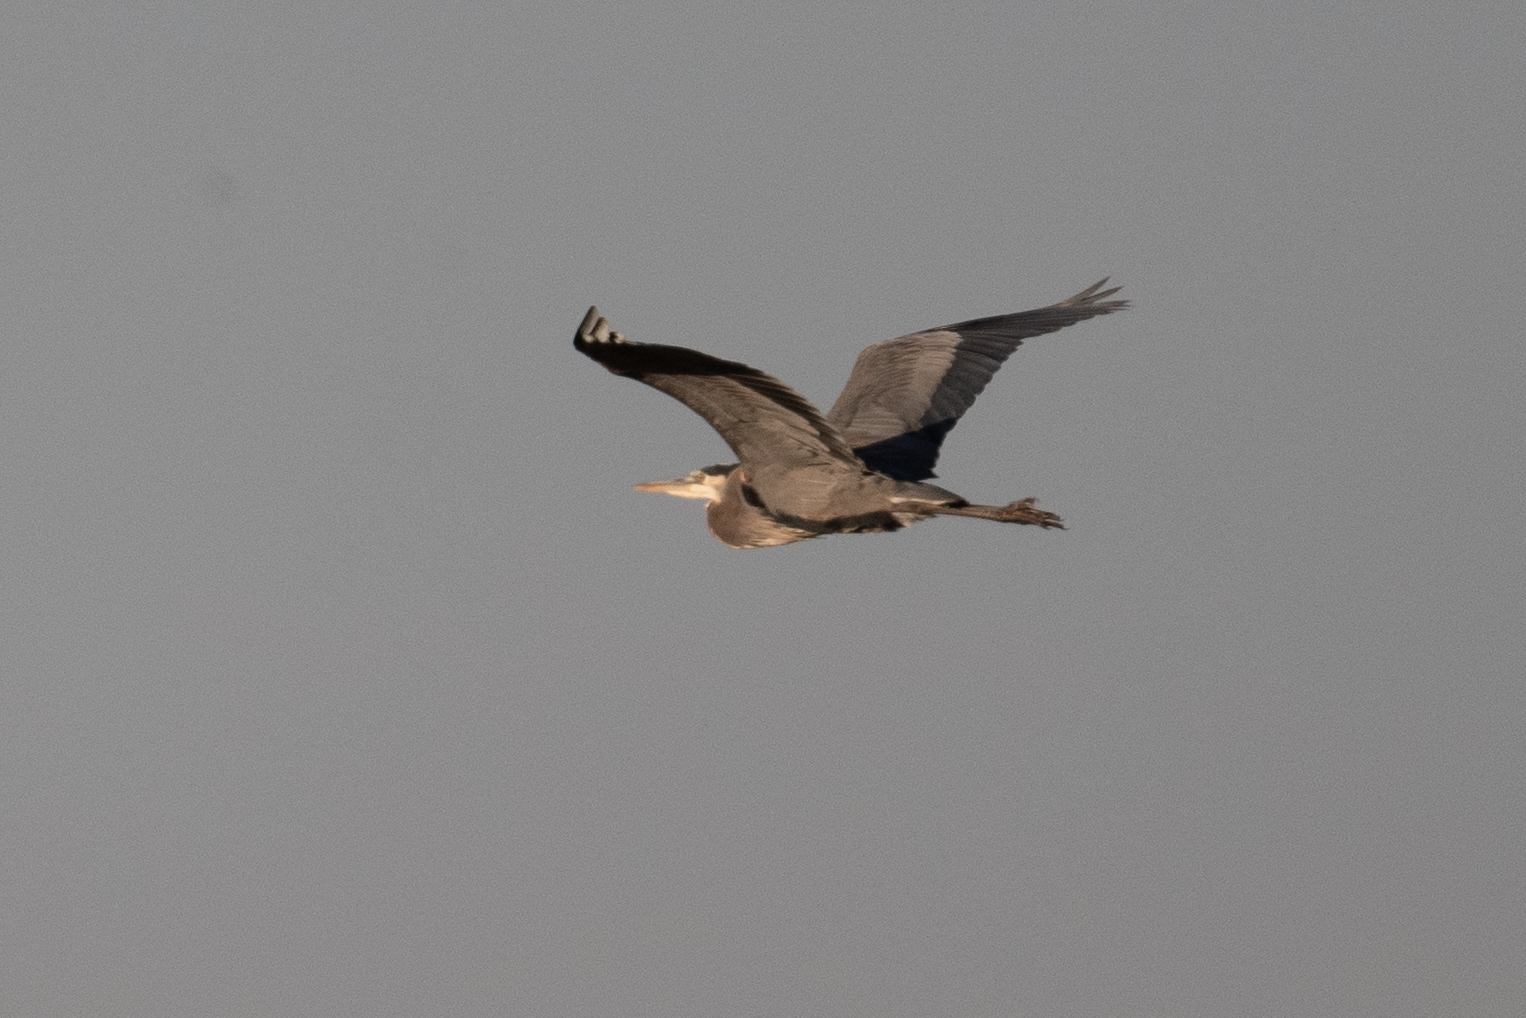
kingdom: Animalia
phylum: Chordata
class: Aves
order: Pelecaniformes
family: Ardeidae
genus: Ardea
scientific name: Ardea herodias
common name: Great blue heron
